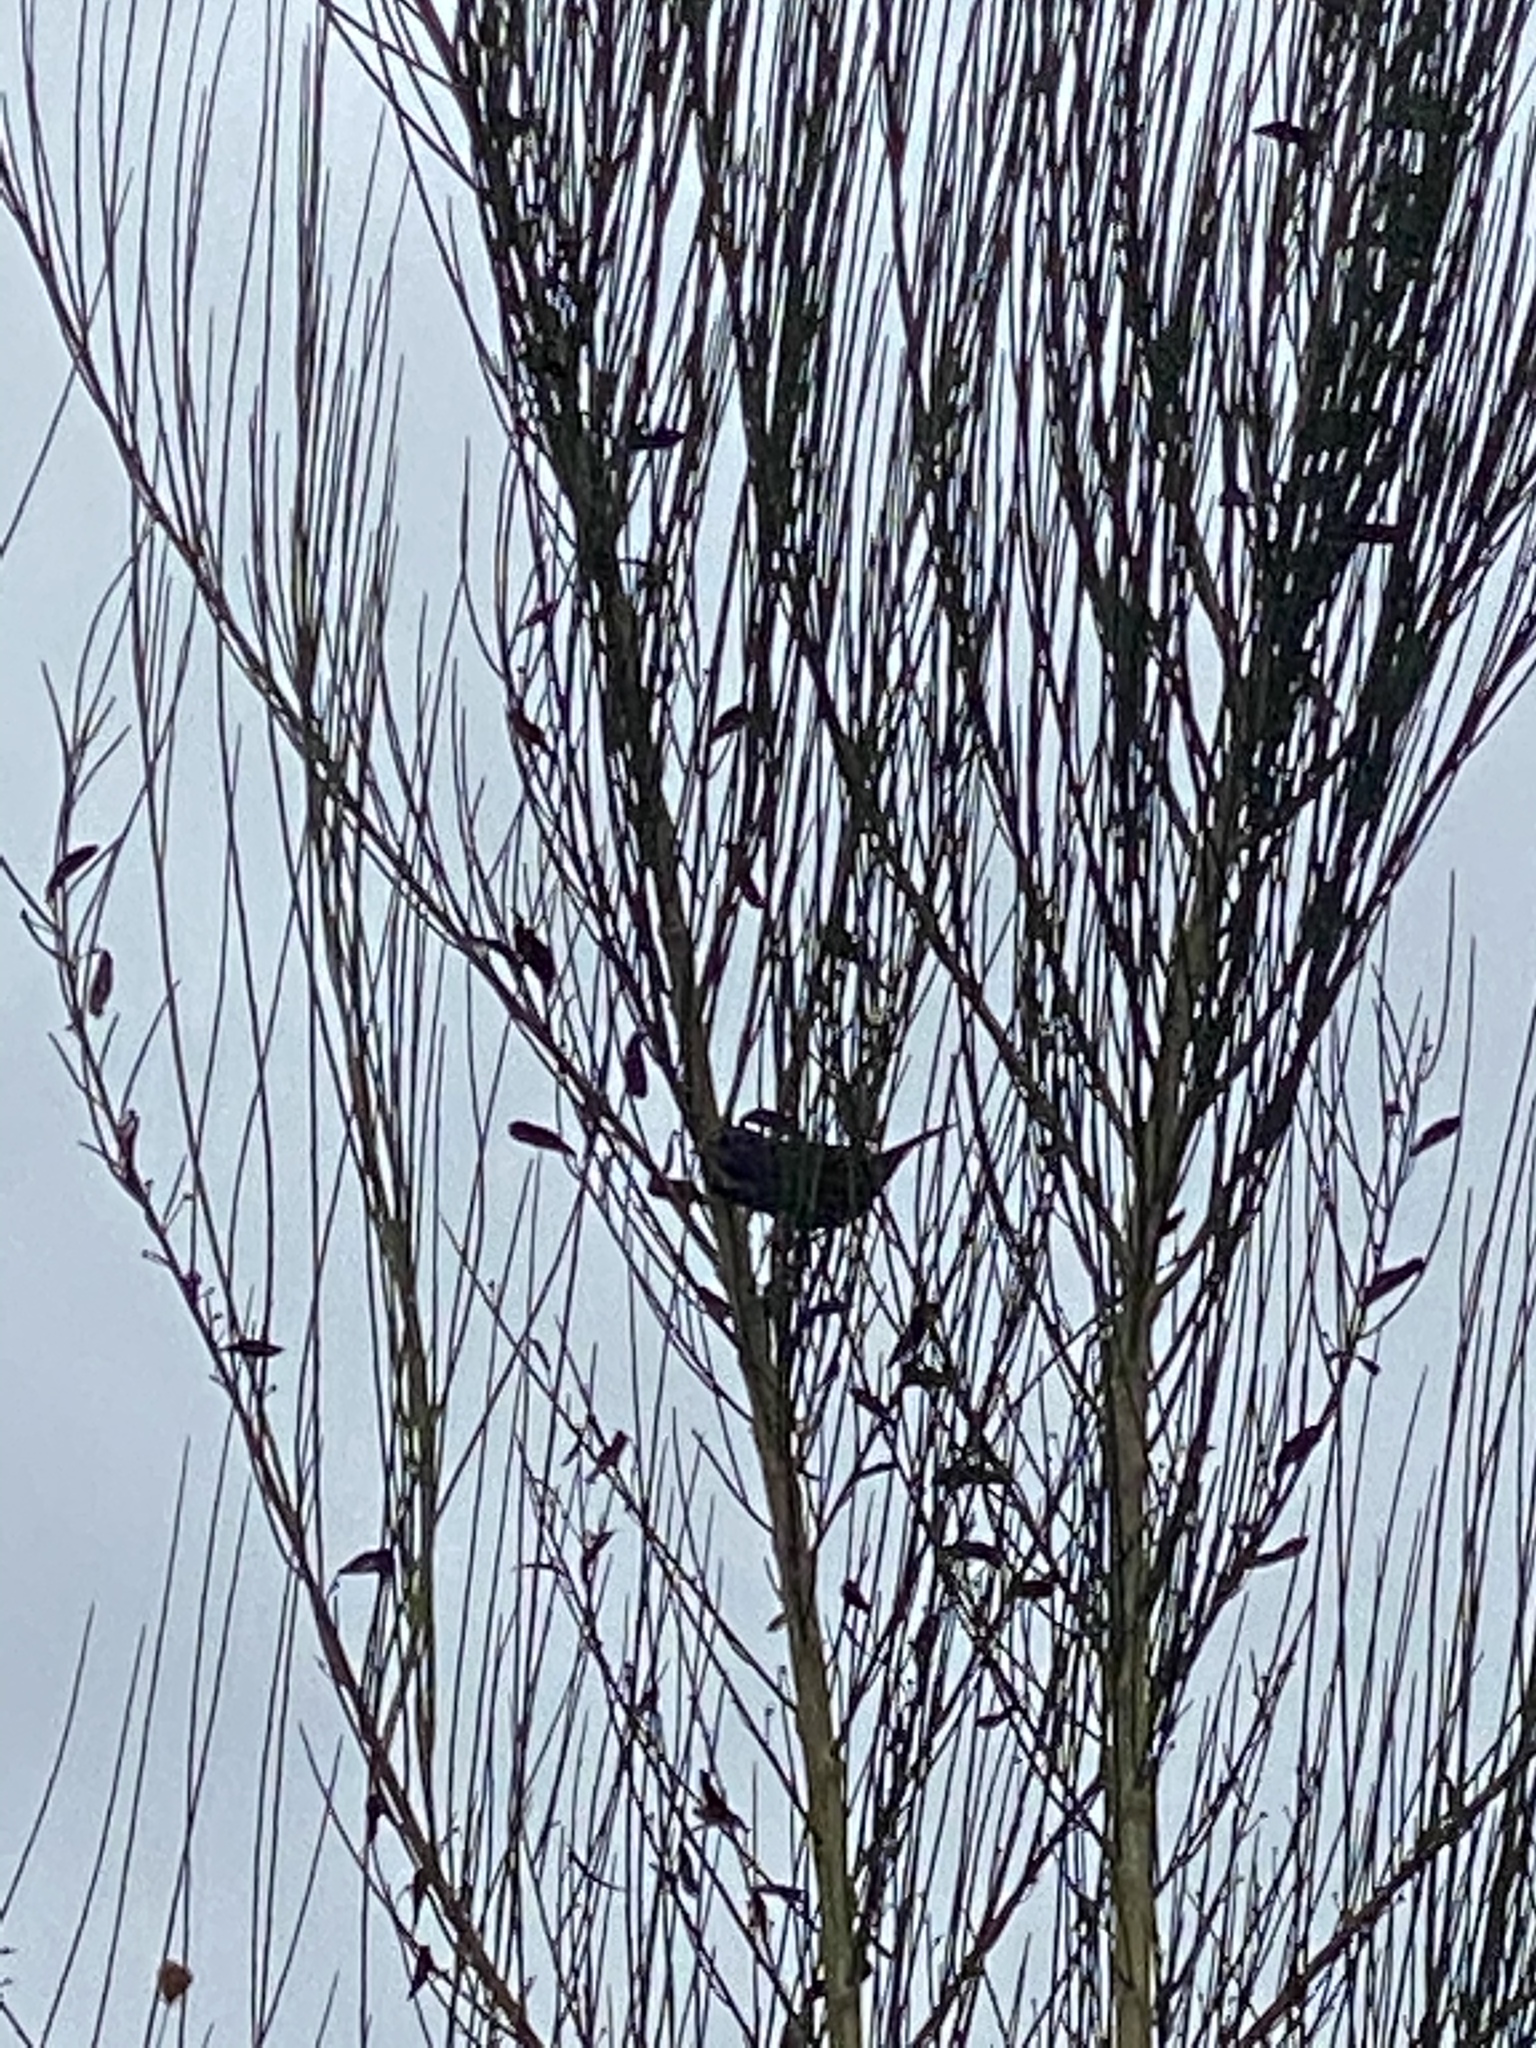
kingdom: Animalia
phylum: Chordata
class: Aves
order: Passeriformes
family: Passerellidae
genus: Melospiza
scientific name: Melospiza melodia
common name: Song sparrow
